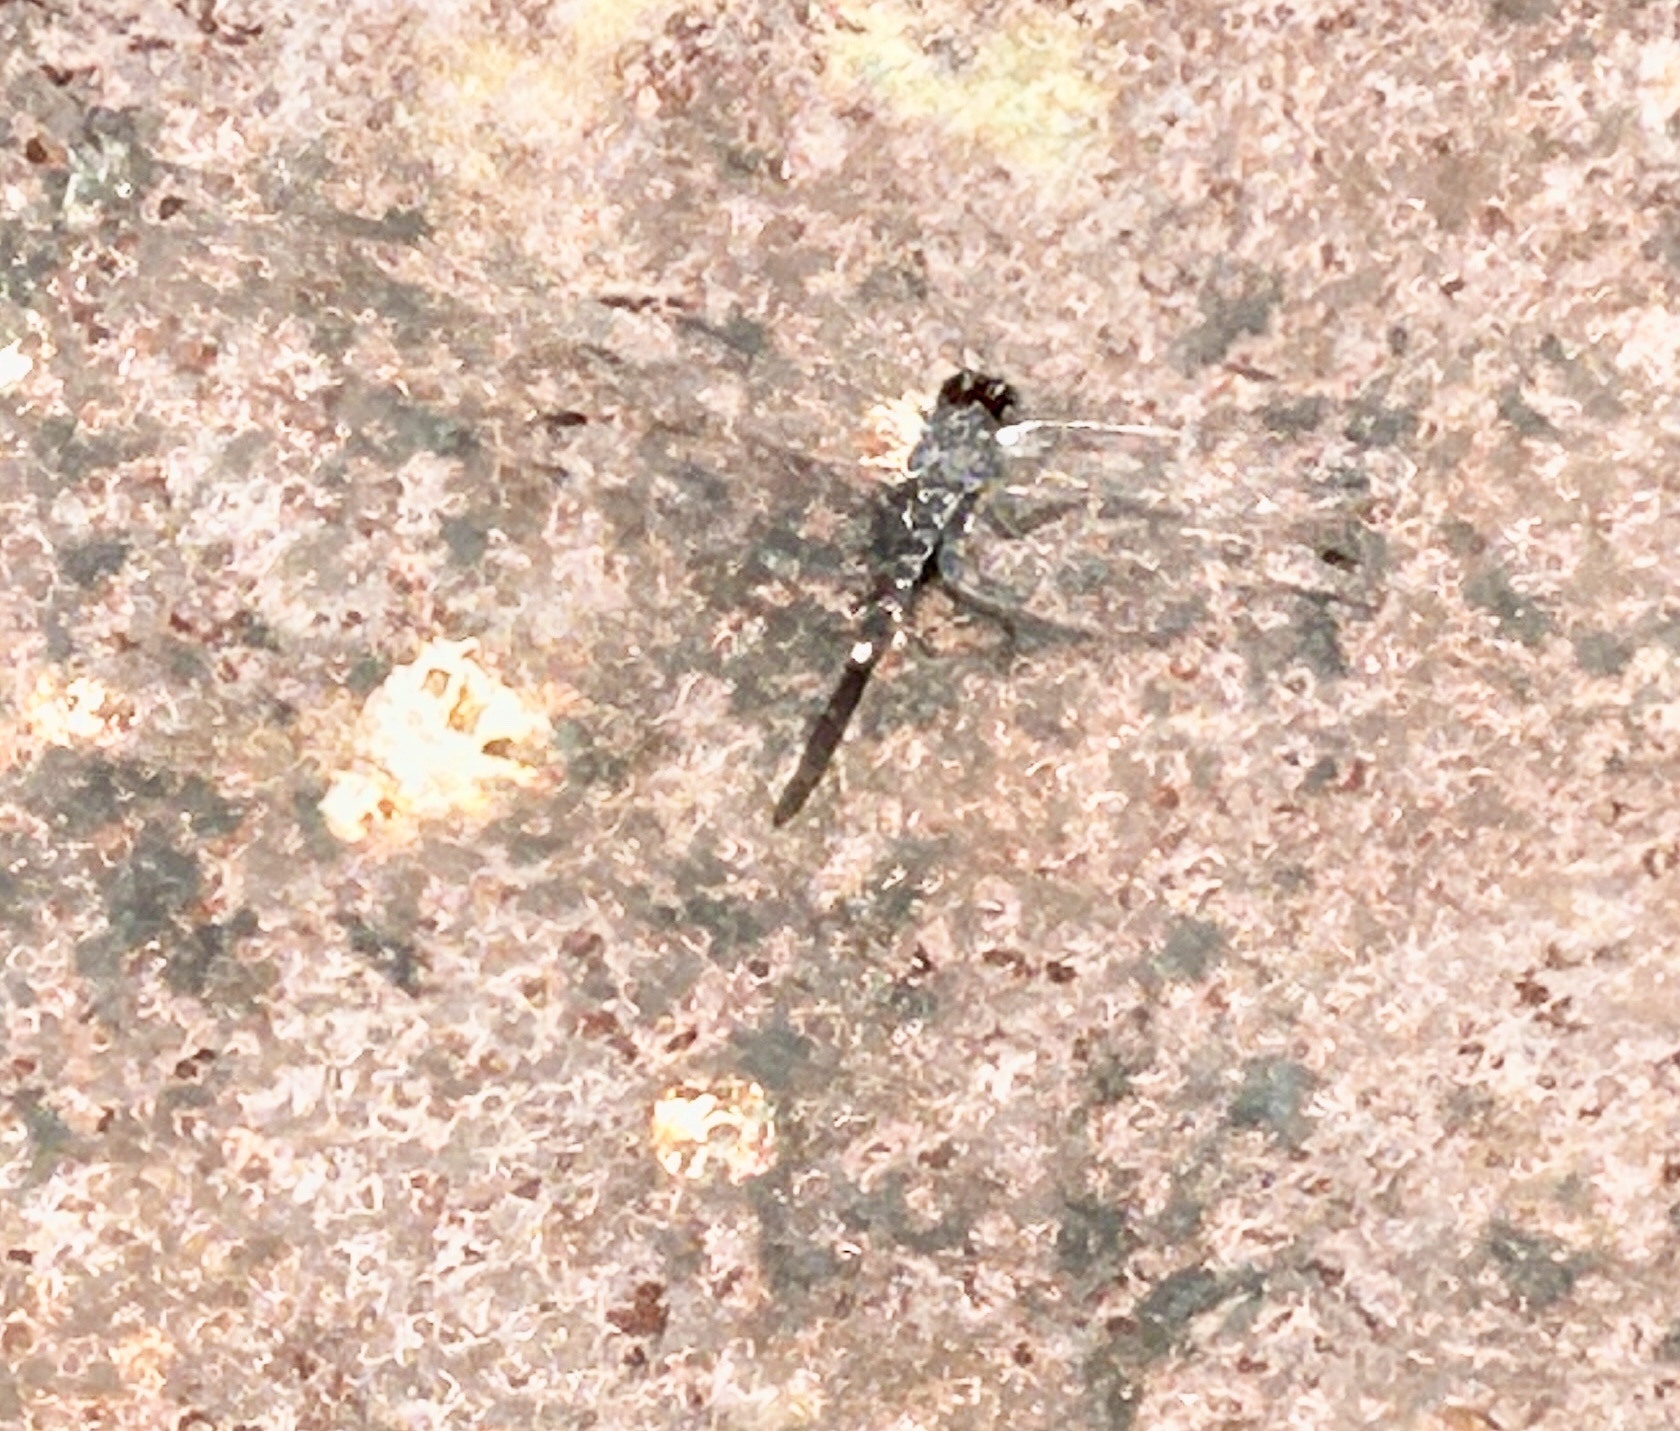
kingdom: Animalia
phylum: Arthropoda
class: Insecta
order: Odonata
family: Libellulidae
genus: Bradinopyga
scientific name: Bradinopyga geminata
